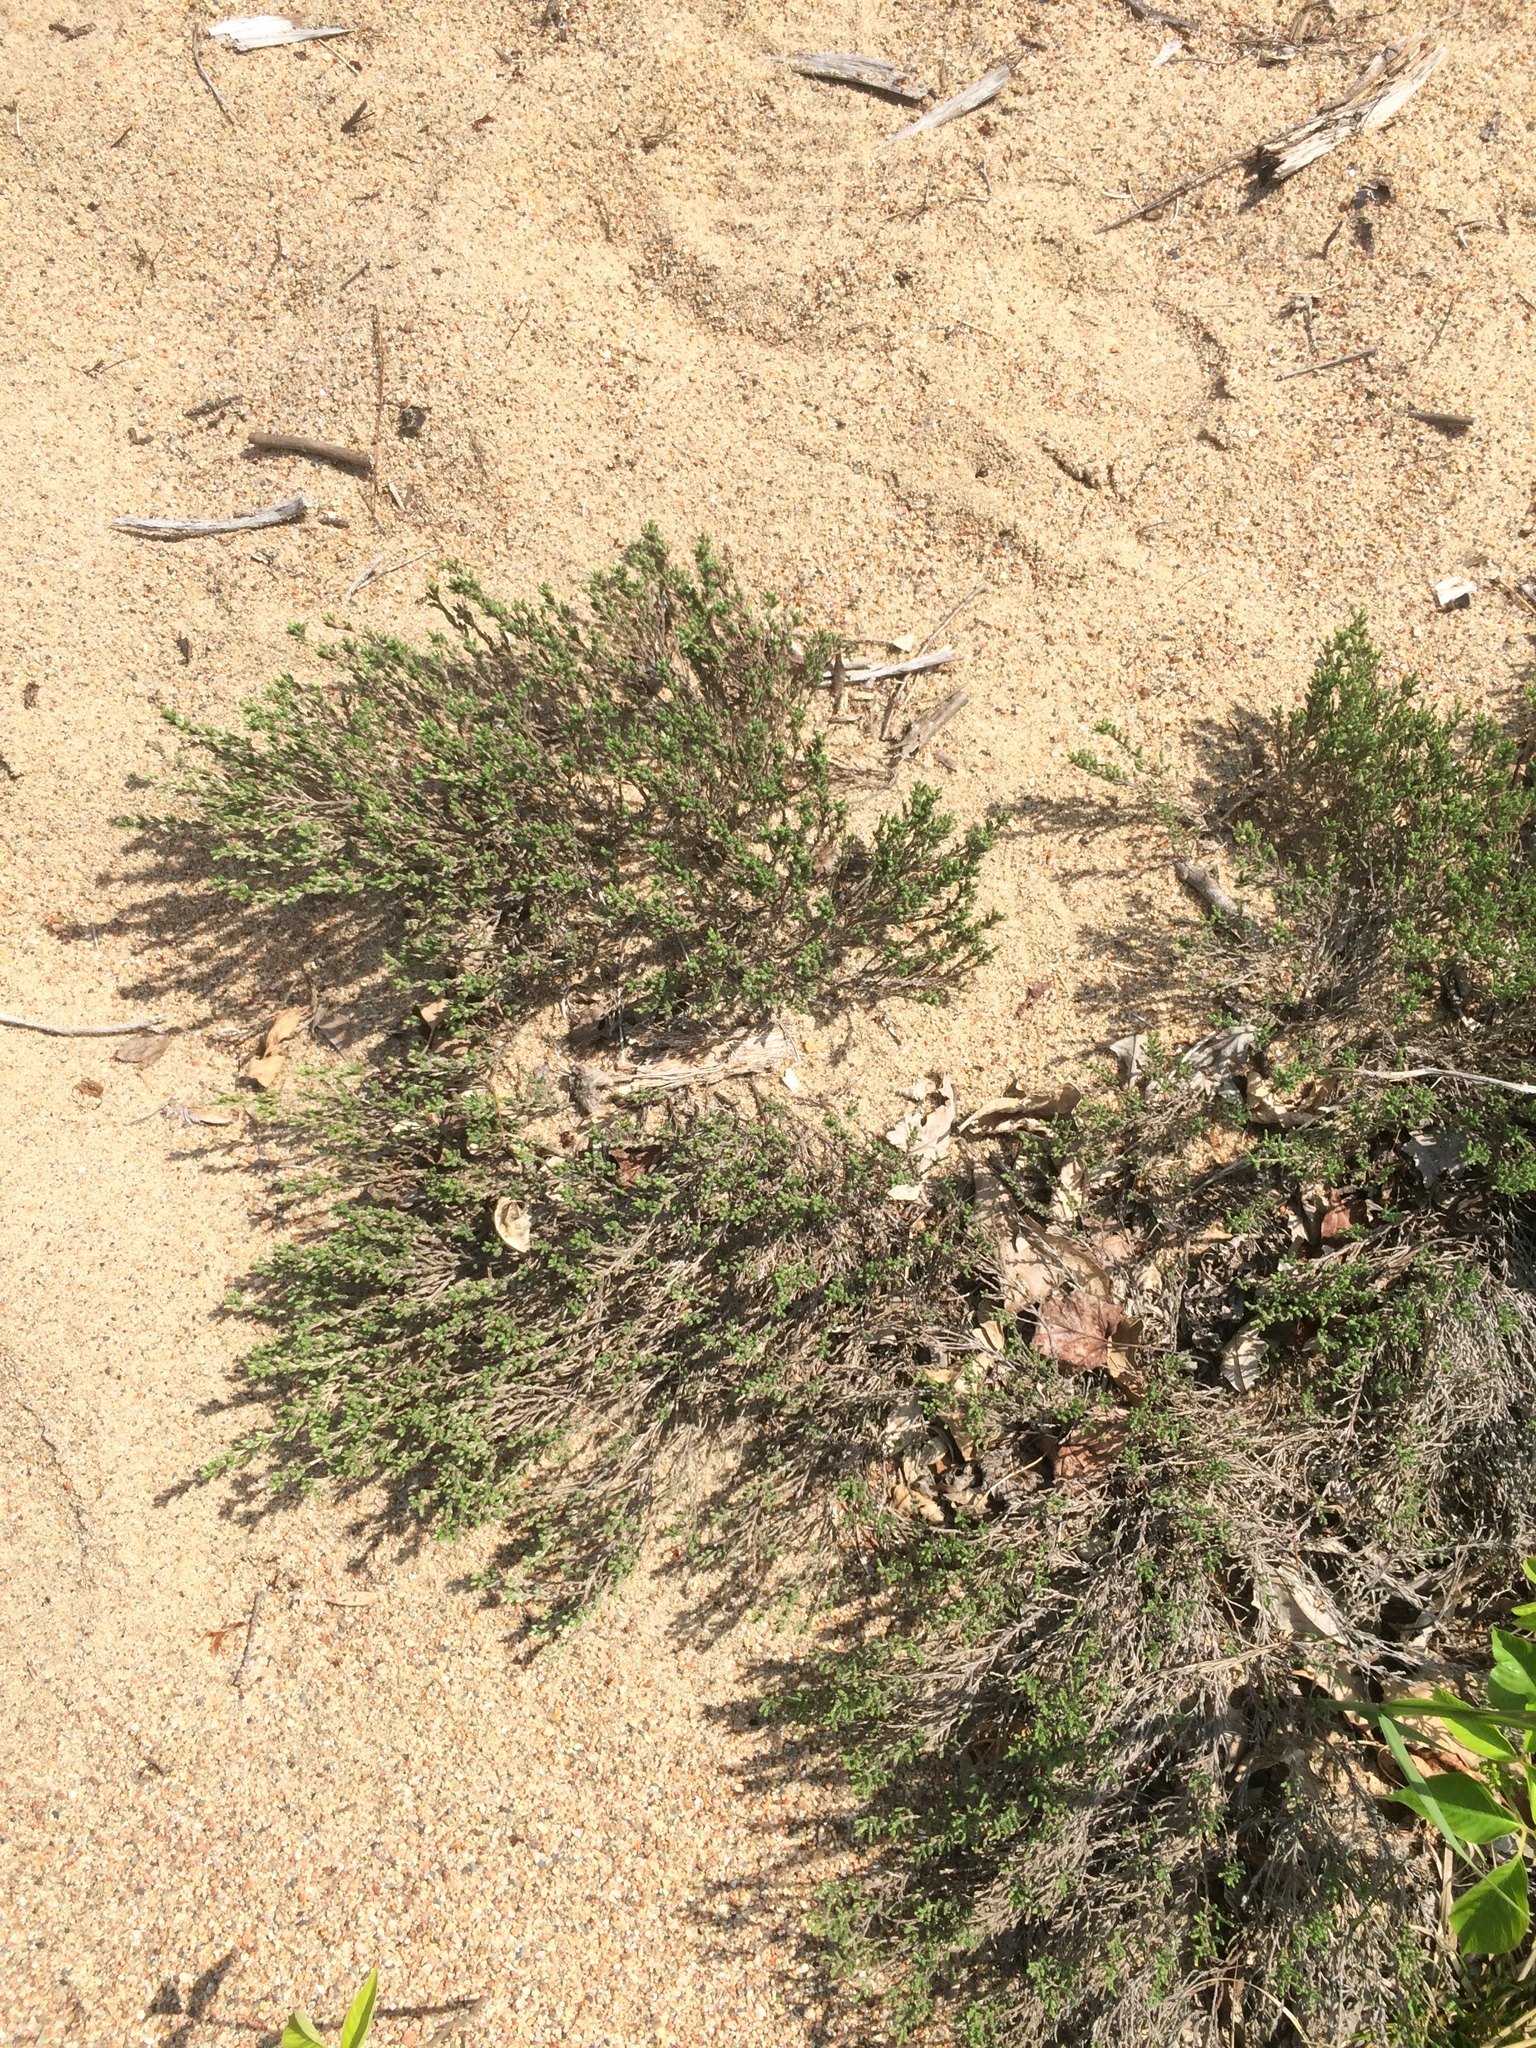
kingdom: Plantae
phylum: Tracheophyta
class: Magnoliopsida
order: Malvales
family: Cistaceae
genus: Hudsonia
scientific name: Hudsonia tomentosa
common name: Beach-heath
